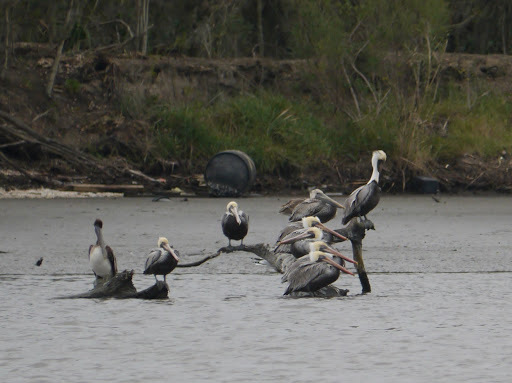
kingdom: Animalia
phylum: Chordata
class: Aves
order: Pelecaniformes
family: Pelecanidae
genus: Pelecanus
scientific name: Pelecanus occidentalis
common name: Brown pelican
